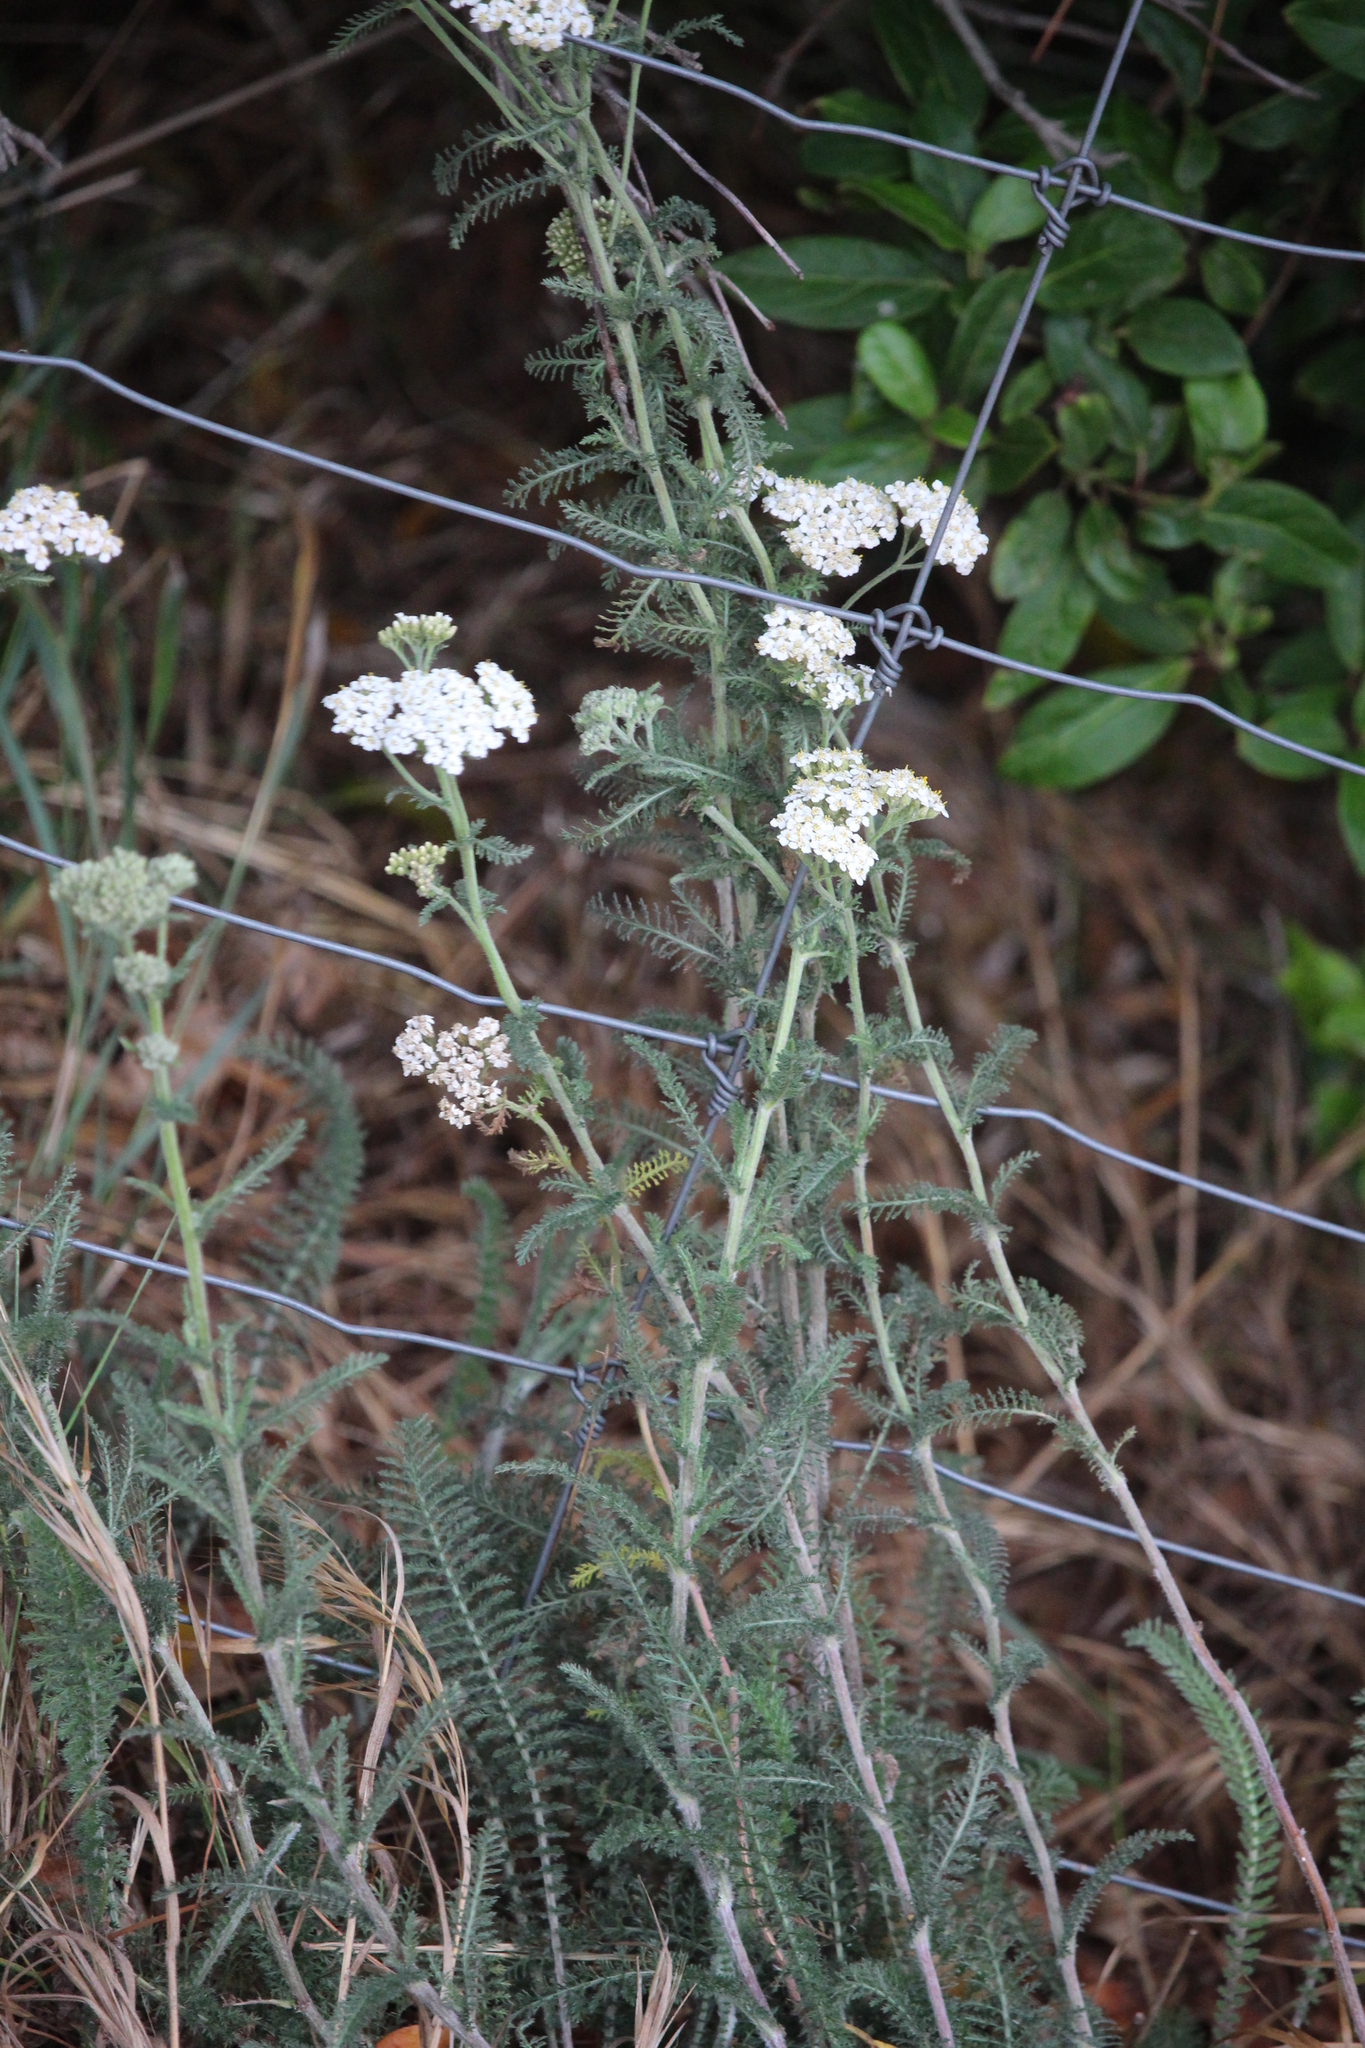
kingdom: Plantae
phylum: Tracheophyta
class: Magnoliopsida
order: Asterales
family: Asteraceae
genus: Achillea
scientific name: Achillea millefolium
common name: Yarrow
